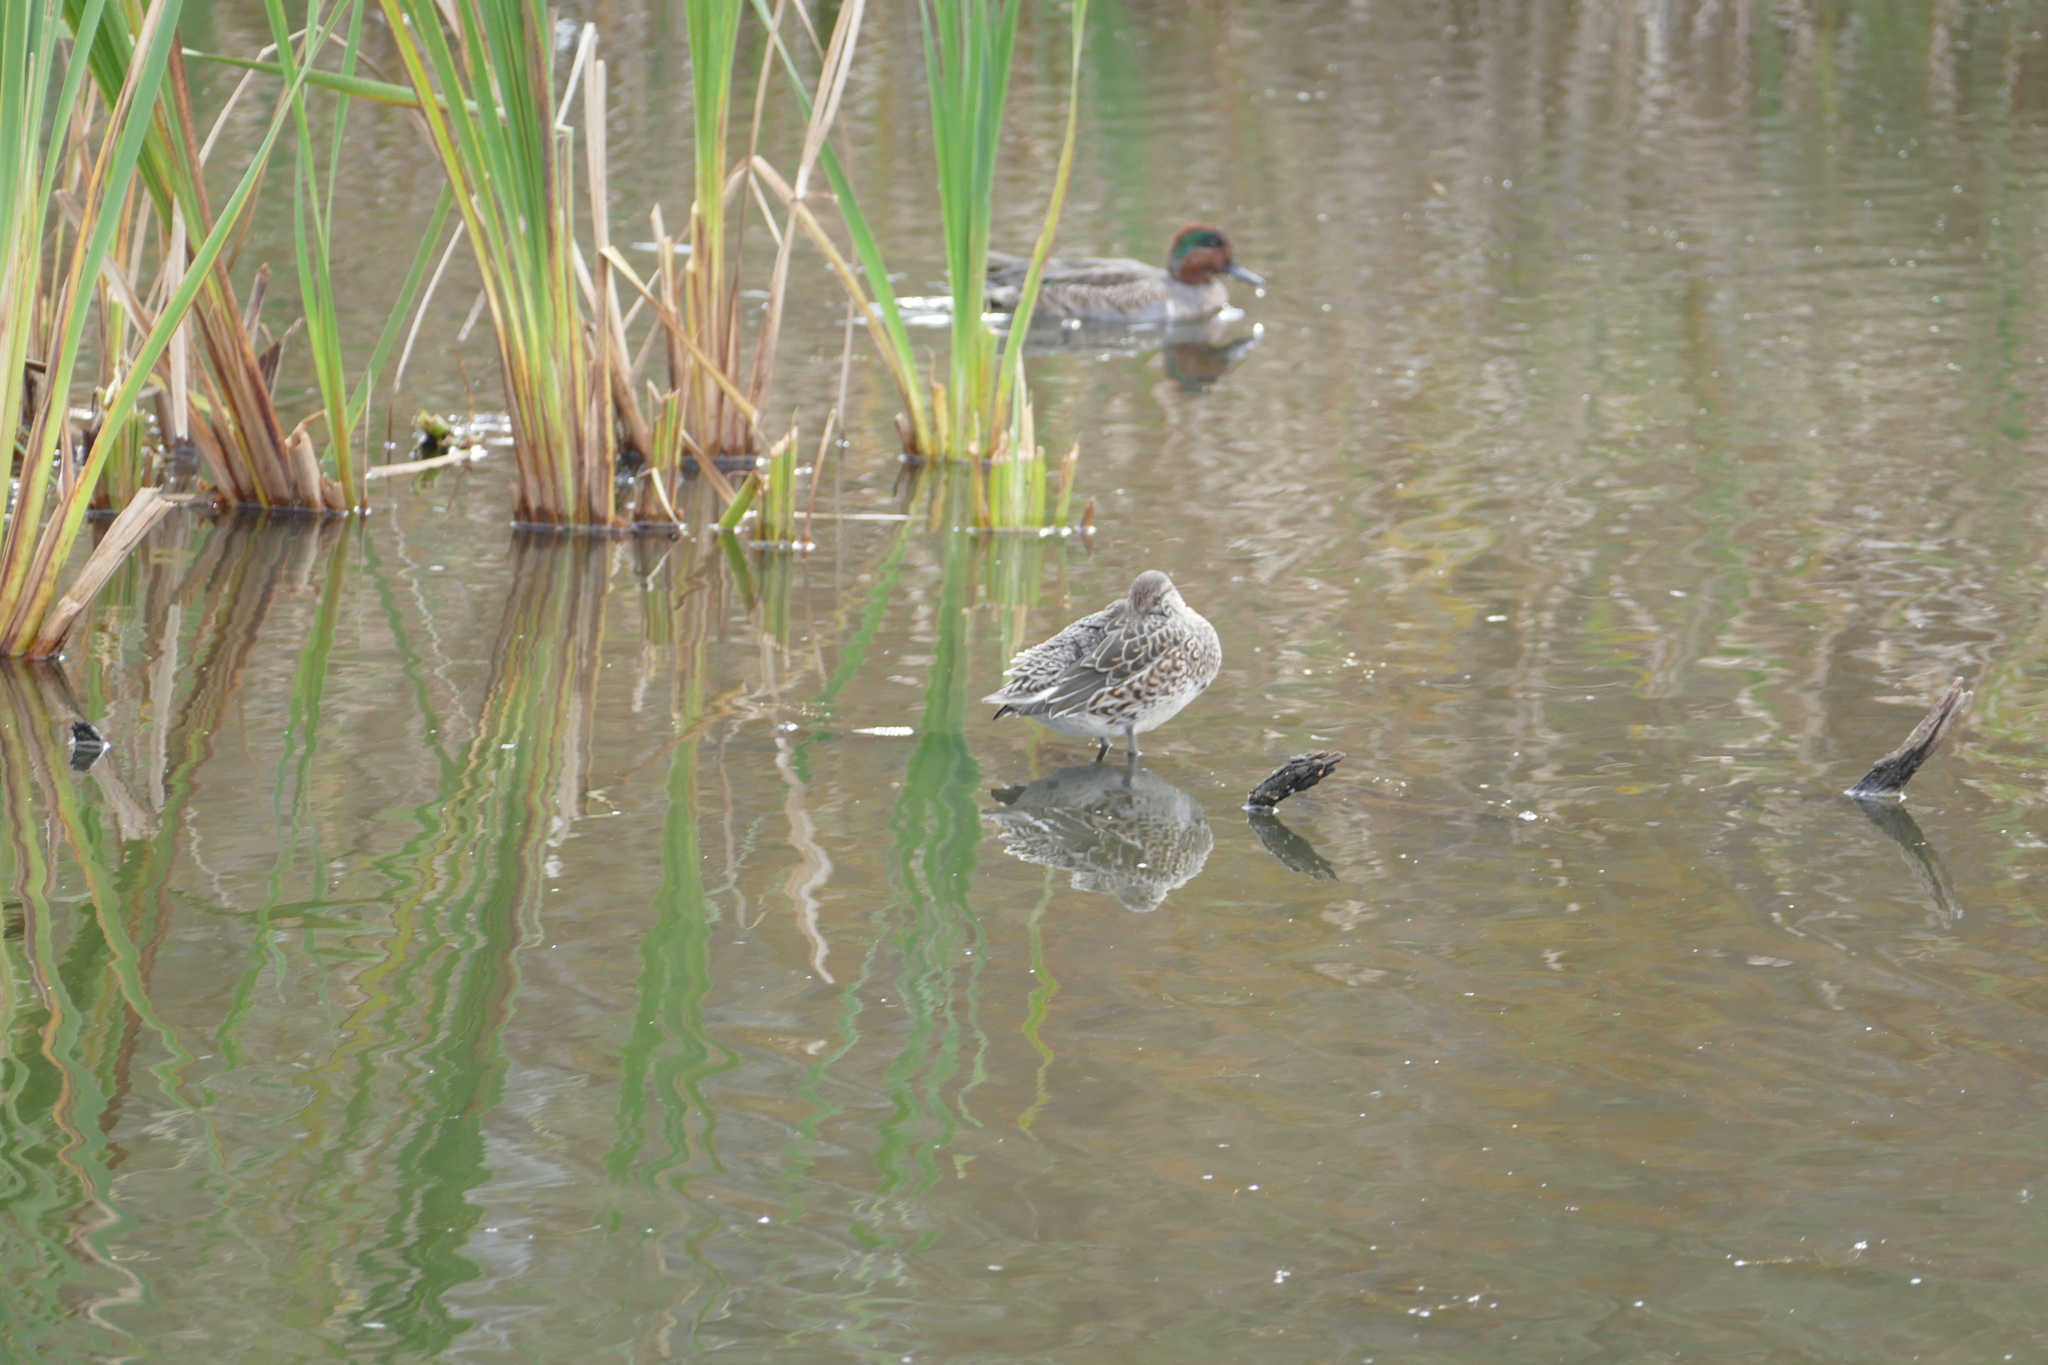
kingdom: Animalia
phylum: Chordata
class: Aves
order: Anseriformes
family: Anatidae
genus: Anas
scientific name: Anas crecca
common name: Eurasian teal
